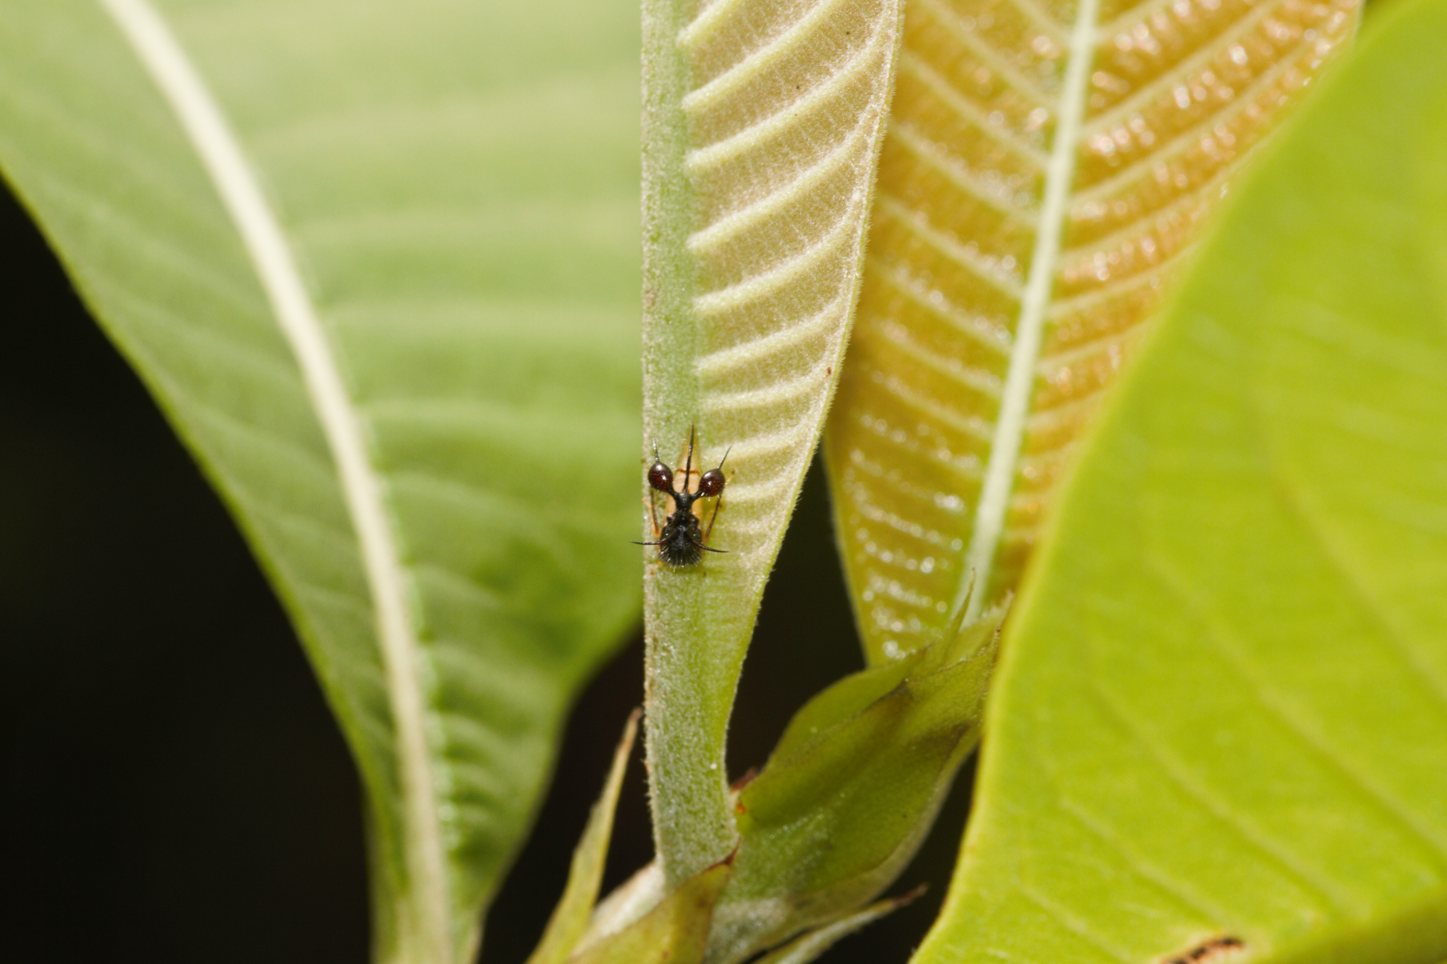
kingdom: Animalia
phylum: Arthropoda
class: Insecta
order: Hemiptera
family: Membracidae
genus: Cyphonia
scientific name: Cyphonia clavata
